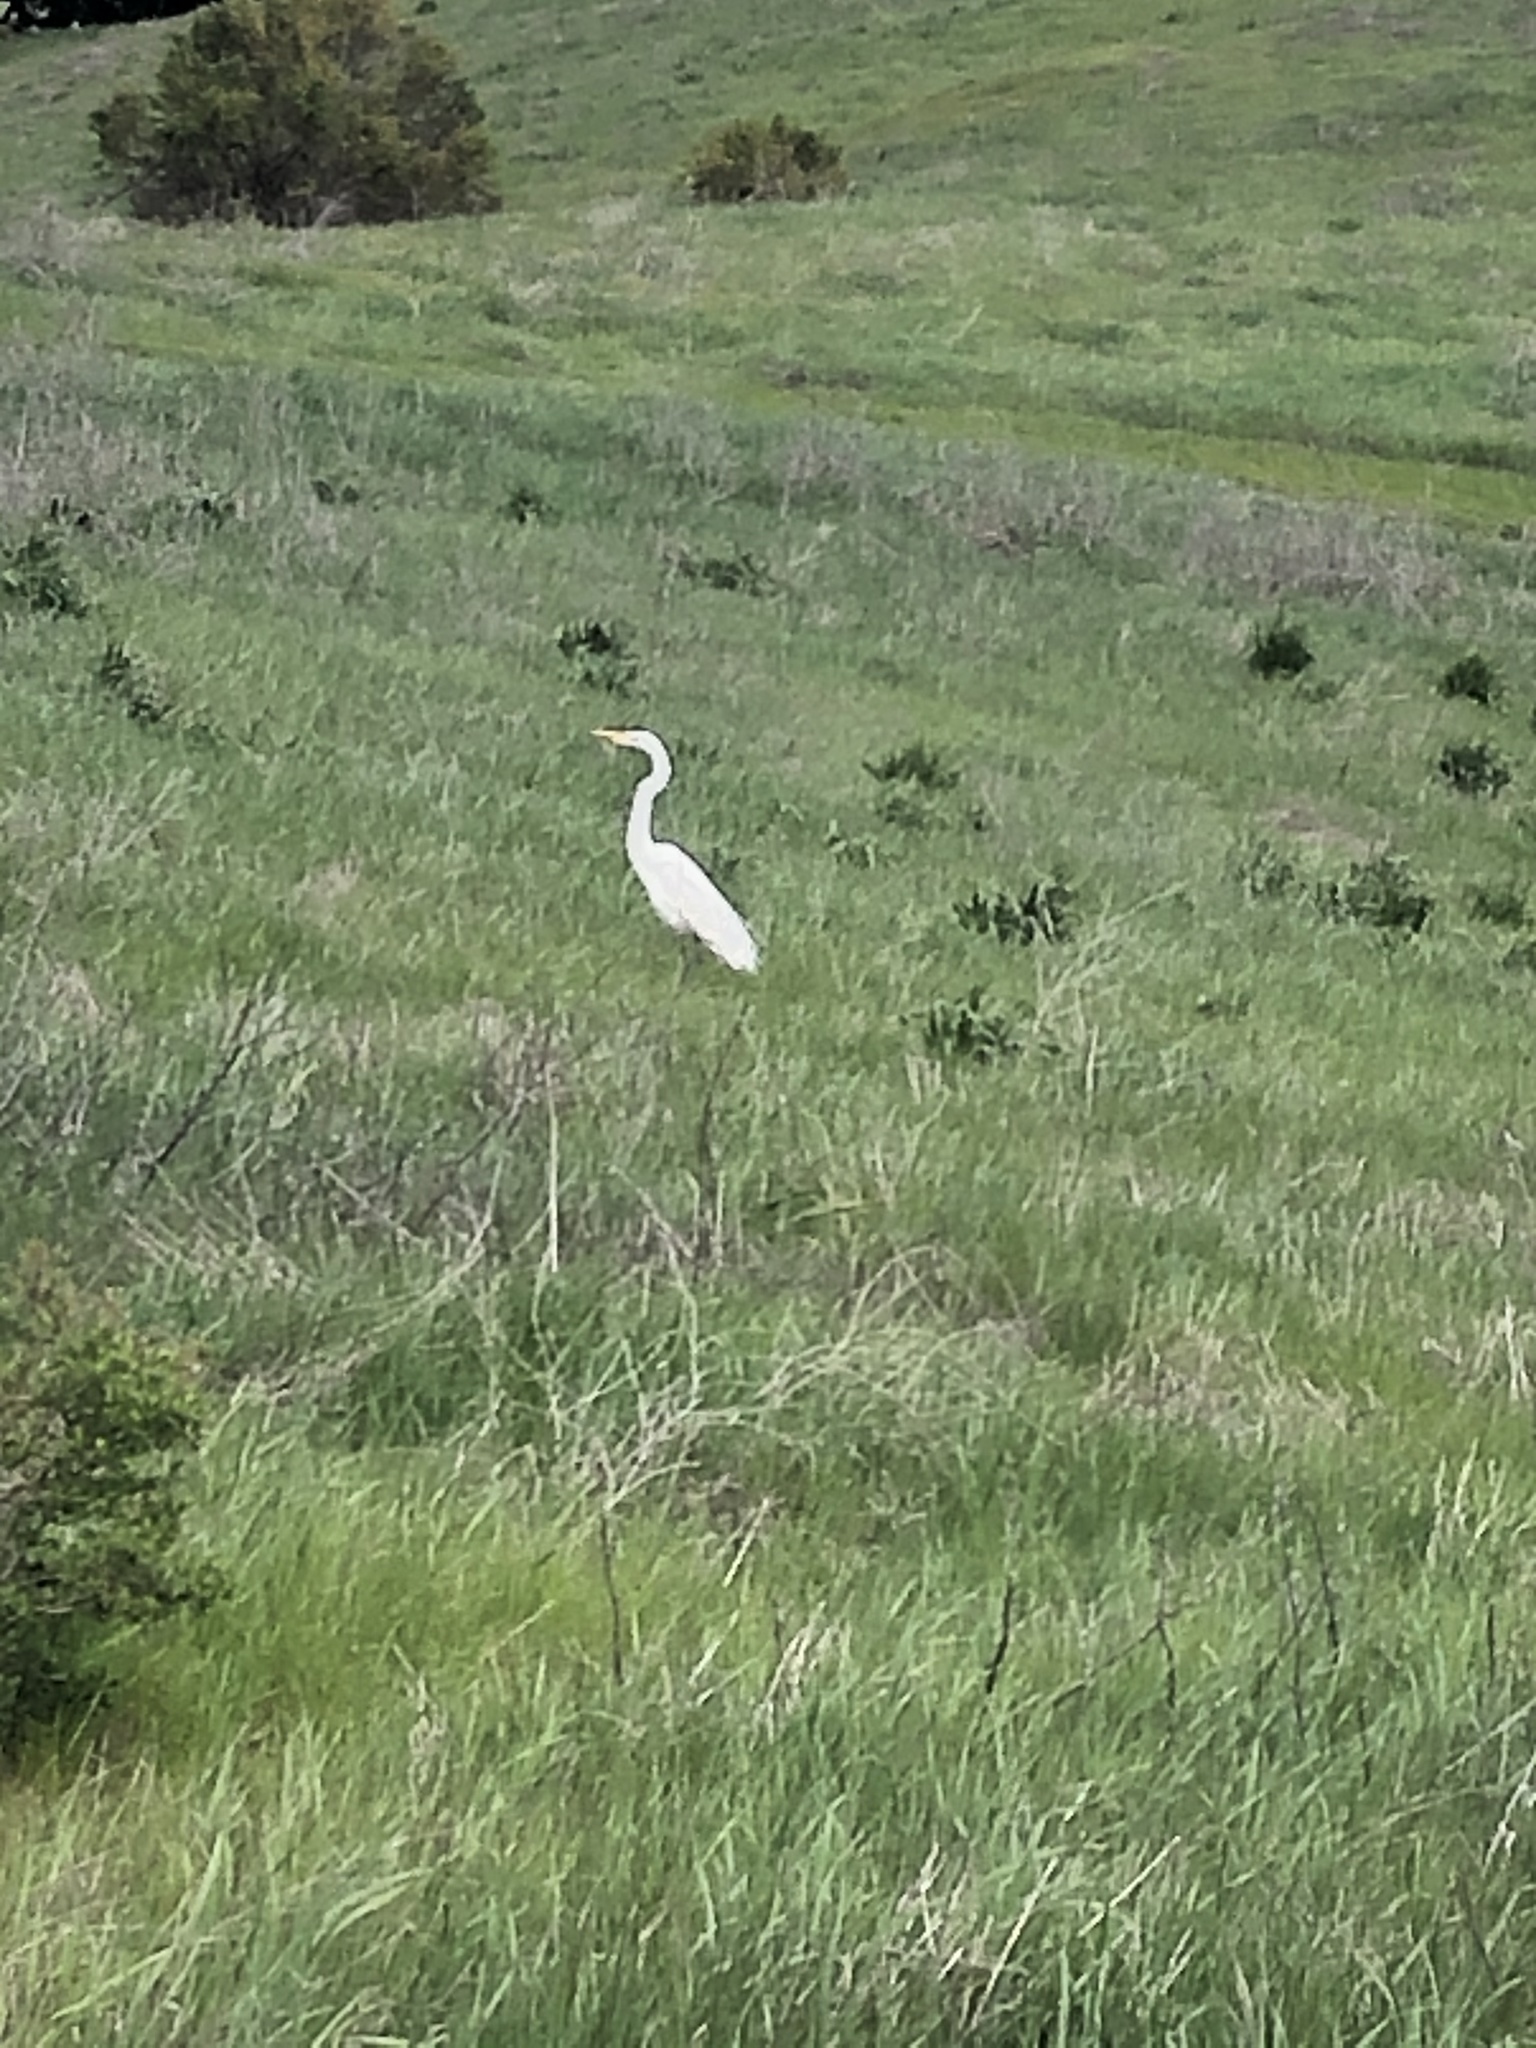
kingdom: Animalia
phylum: Chordata
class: Aves
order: Pelecaniformes
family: Ardeidae
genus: Ardea
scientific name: Ardea alba
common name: Great egret
